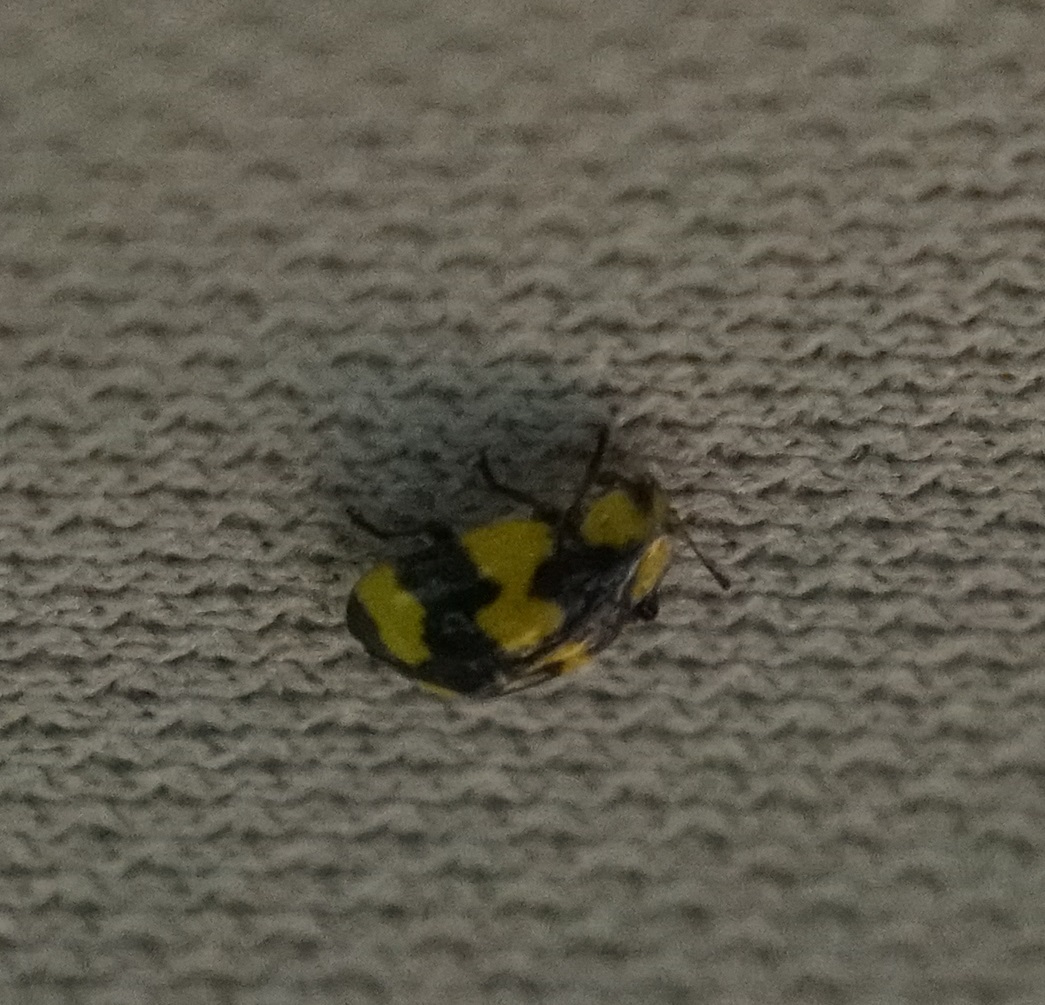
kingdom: Animalia
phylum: Arthropoda
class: Insecta
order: Coleoptera
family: Coccinellidae
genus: Illeis
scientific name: Illeis galbula
